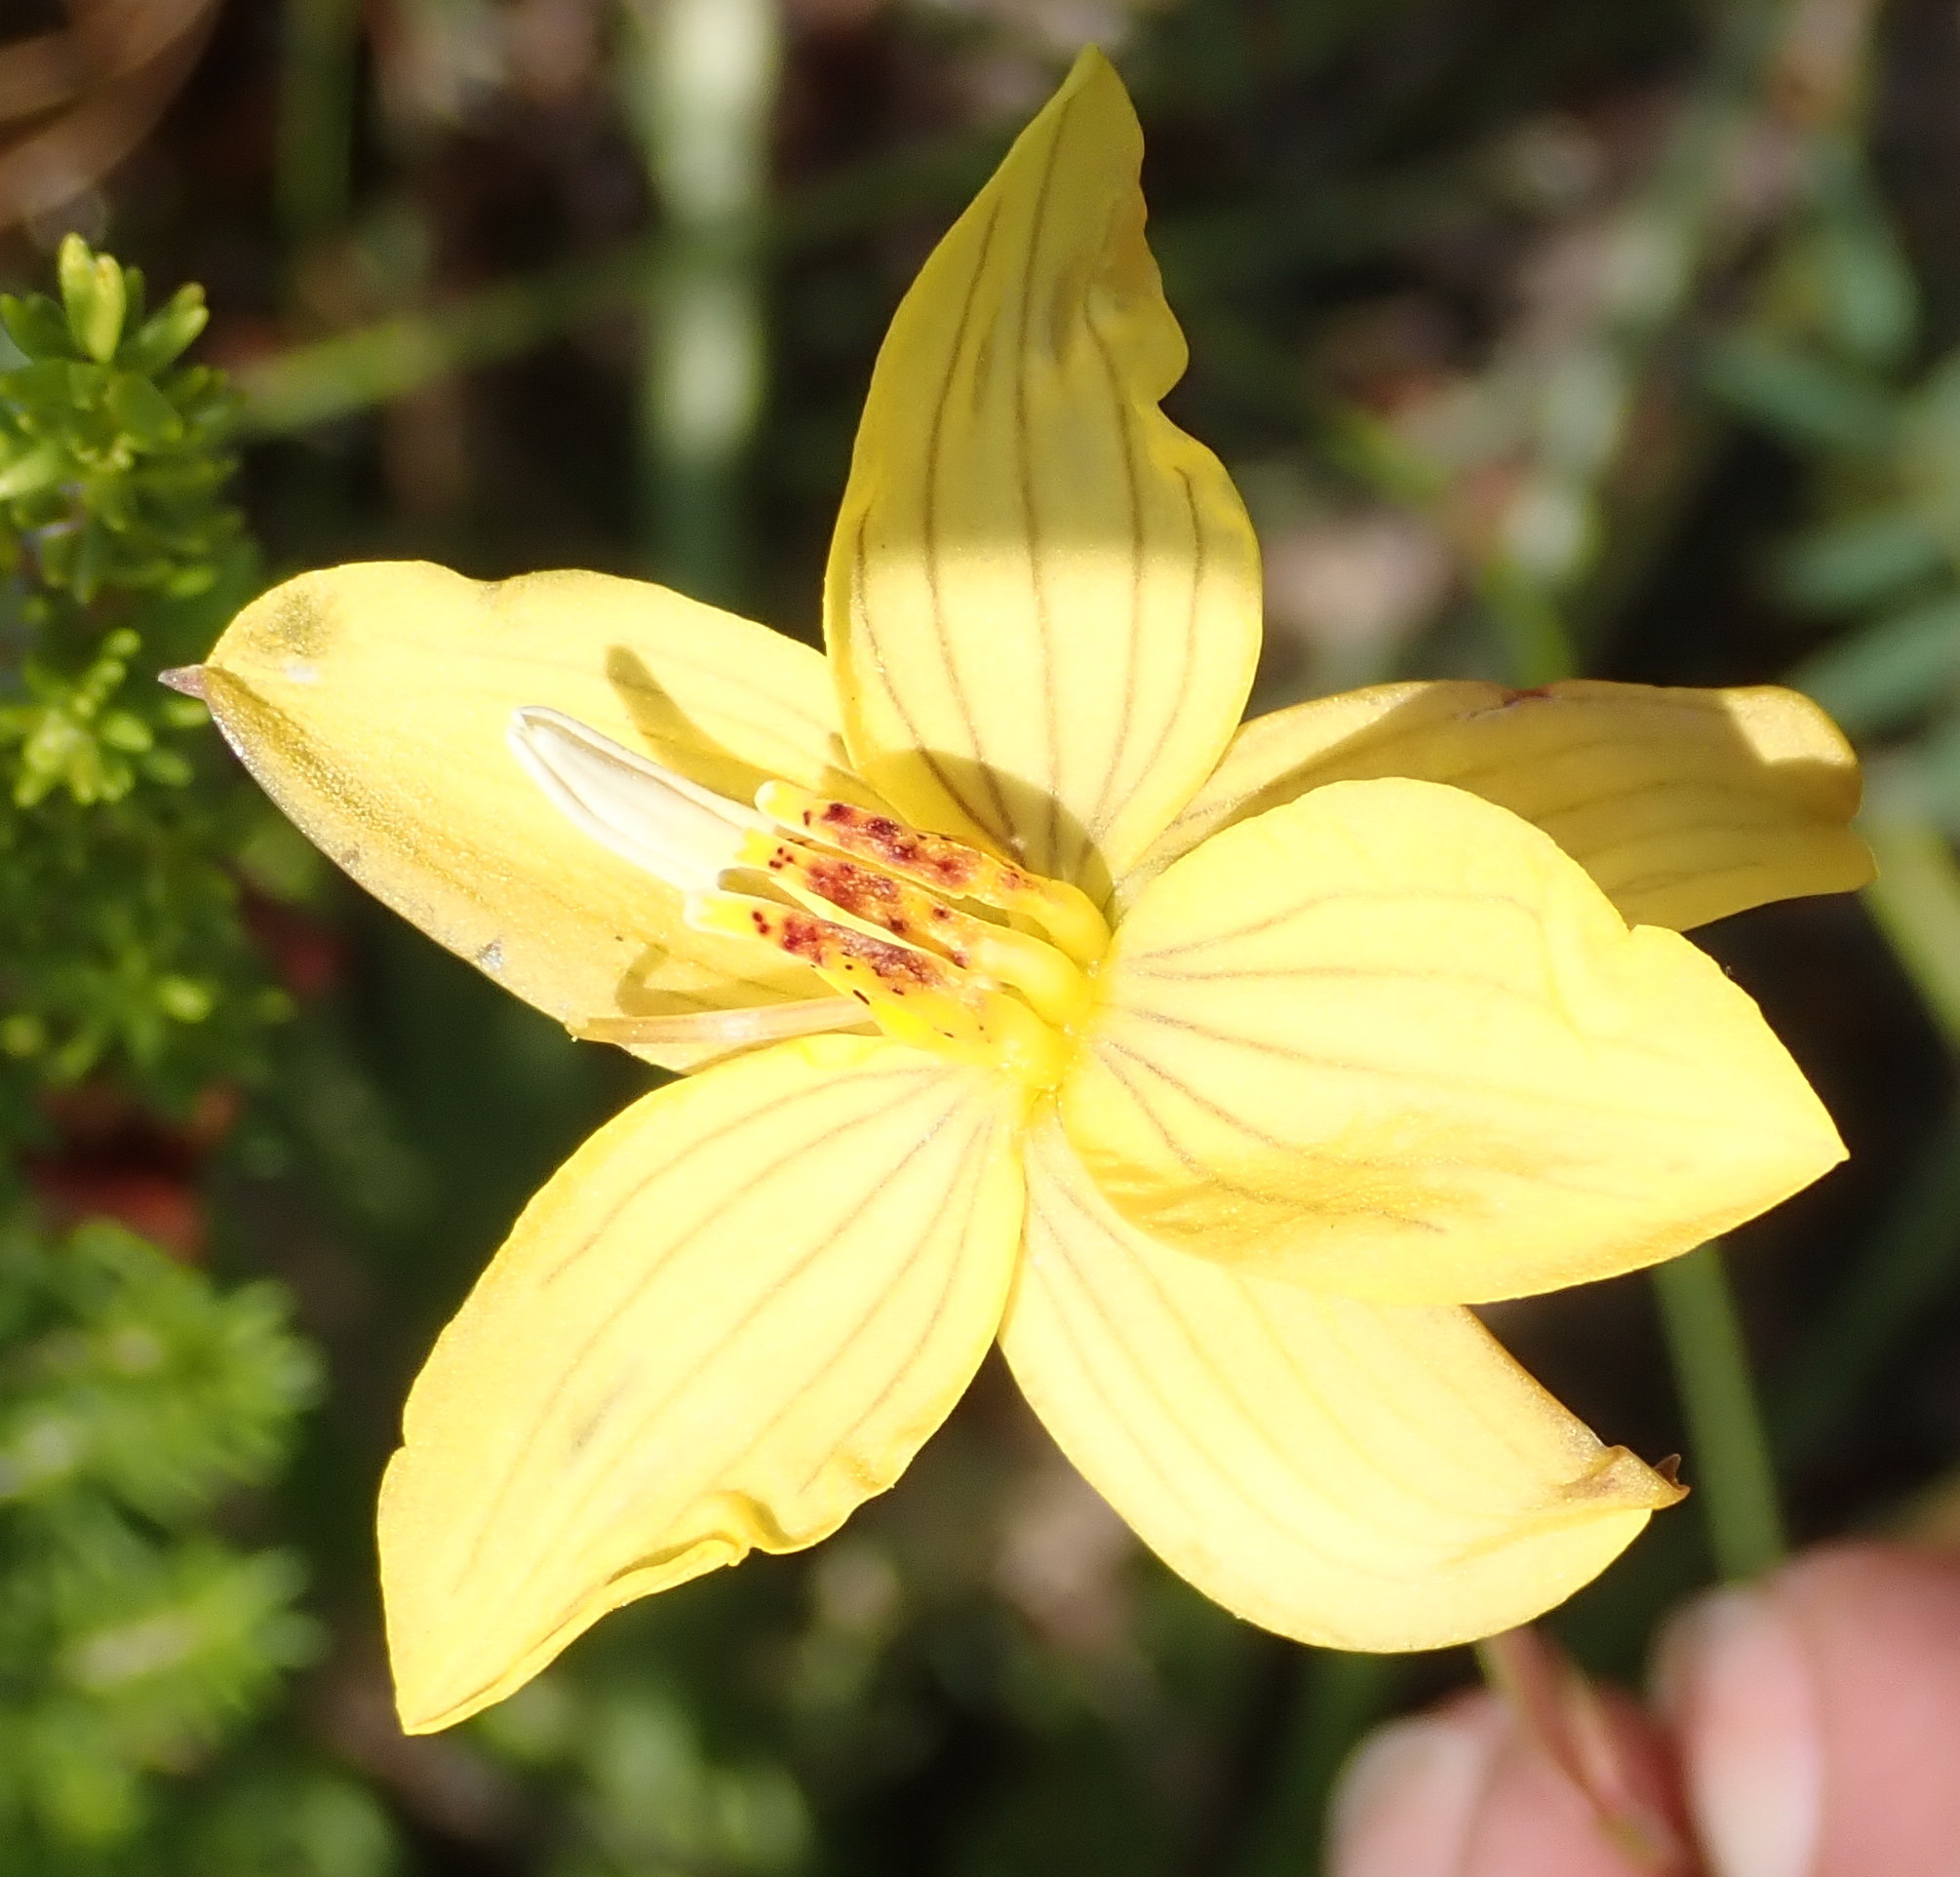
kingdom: Plantae
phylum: Tracheophyta
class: Liliopsida
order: Asparagales
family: Tecophilaeaceae
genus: Cyanella
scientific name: Cyanella lutea
